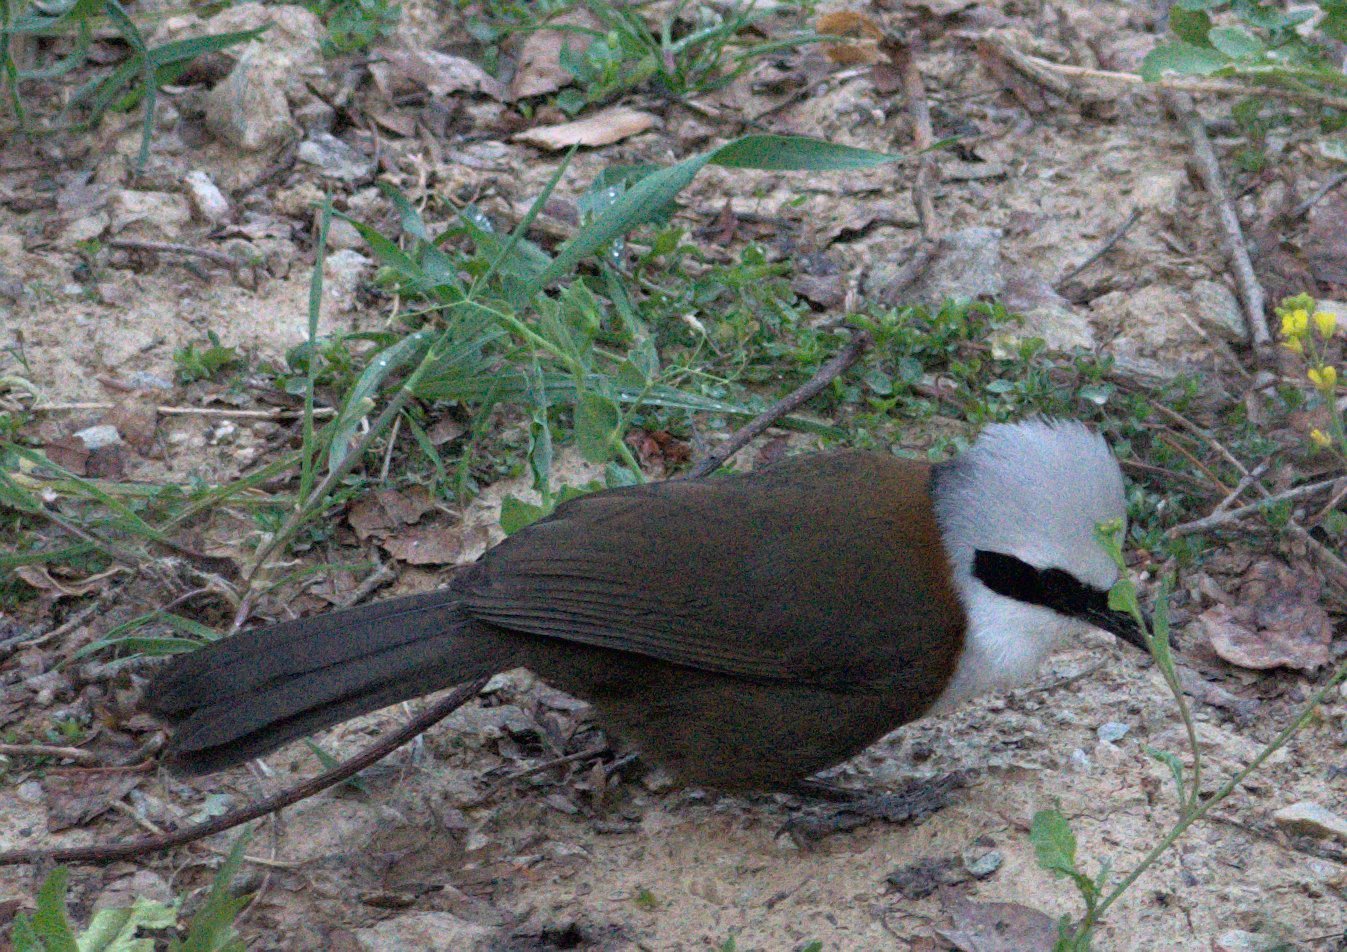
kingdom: Animalia
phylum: Chordata
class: Aves
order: Passeriformes
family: Leiothrichidae
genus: Garrulax
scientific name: Garrulax leucolophus
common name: White-crested laughingthrush
